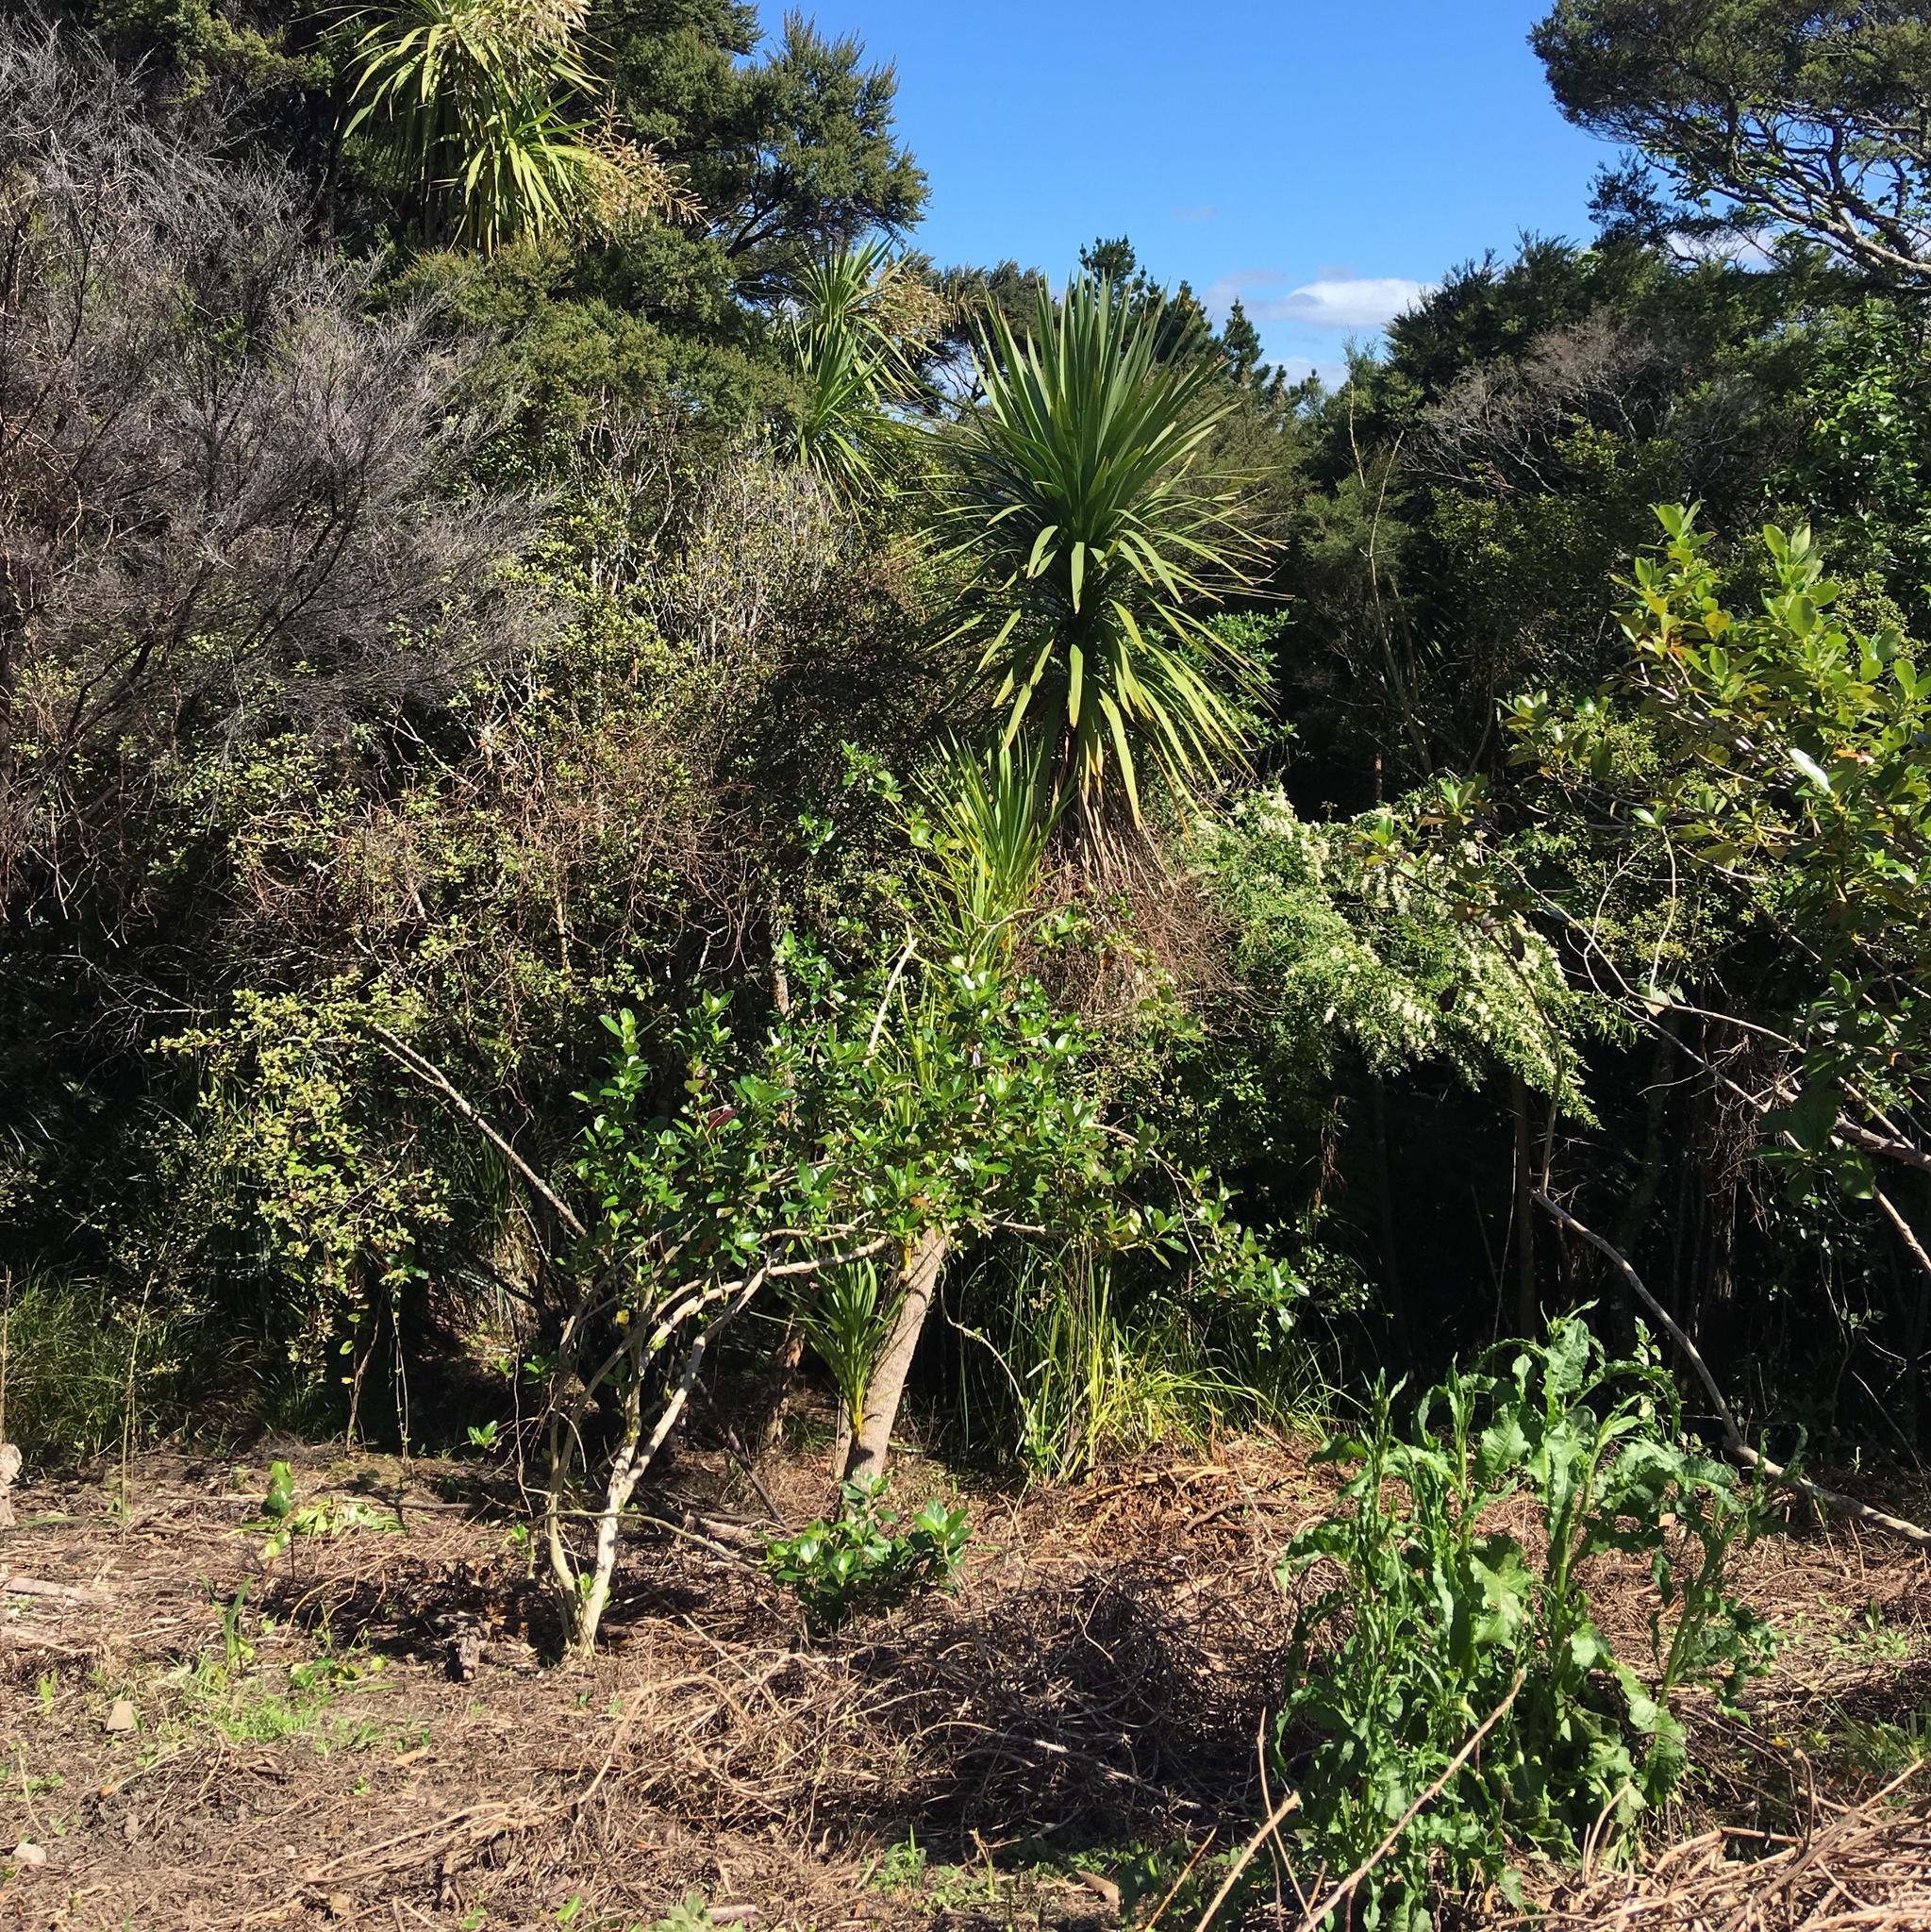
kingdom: Plantae
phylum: Tracheophyta
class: Magnoliopsida
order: Caryophyllales
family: Polygonaceae
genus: Rumex
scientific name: Rumex obtusifolius
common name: Bitter dock
